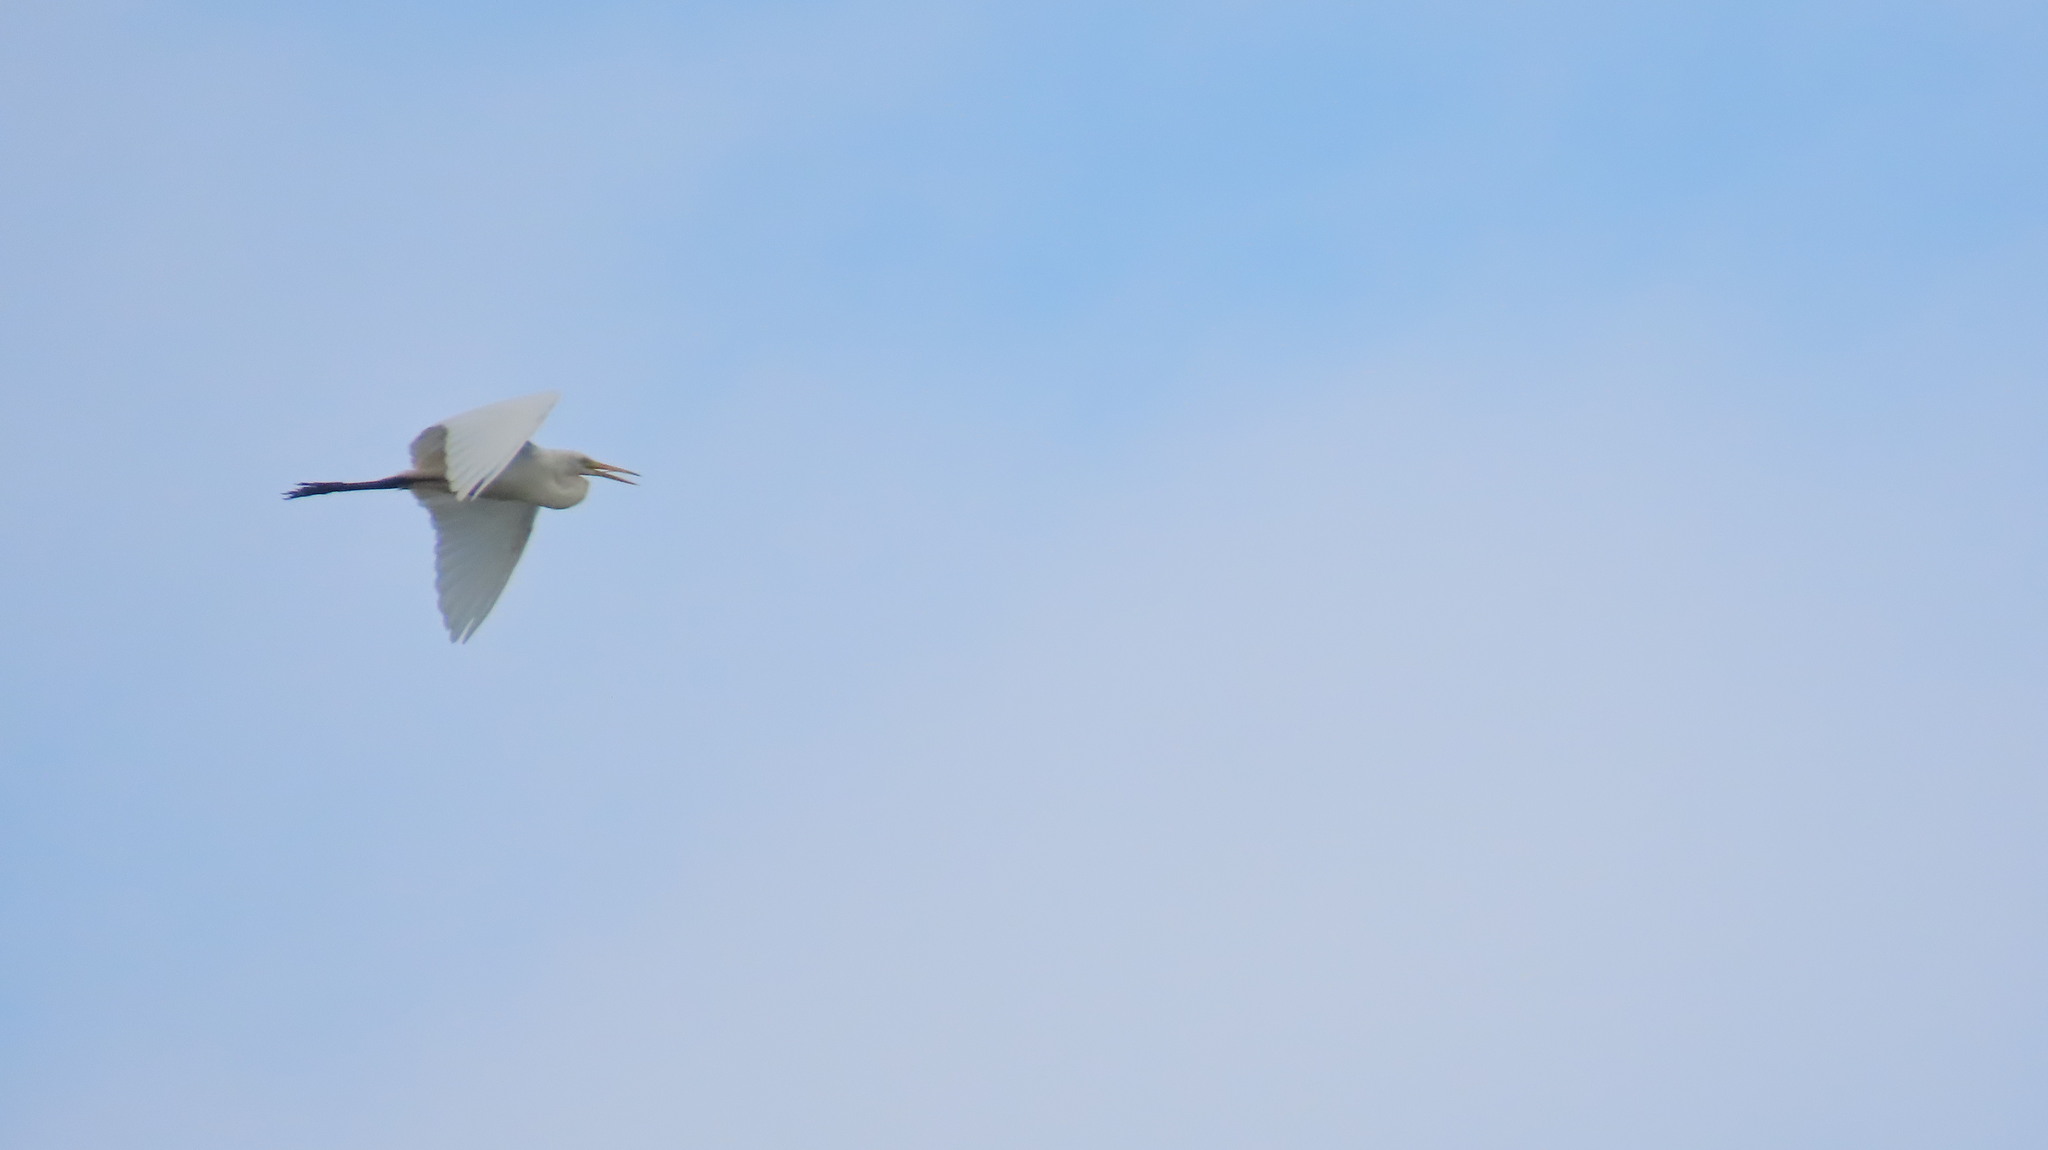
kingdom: Animalia
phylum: Chordata
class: Aves
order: Pelecaniformes
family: Ardeidae
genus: Egretta
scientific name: Egretta intermedia
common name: Intermediate egret
